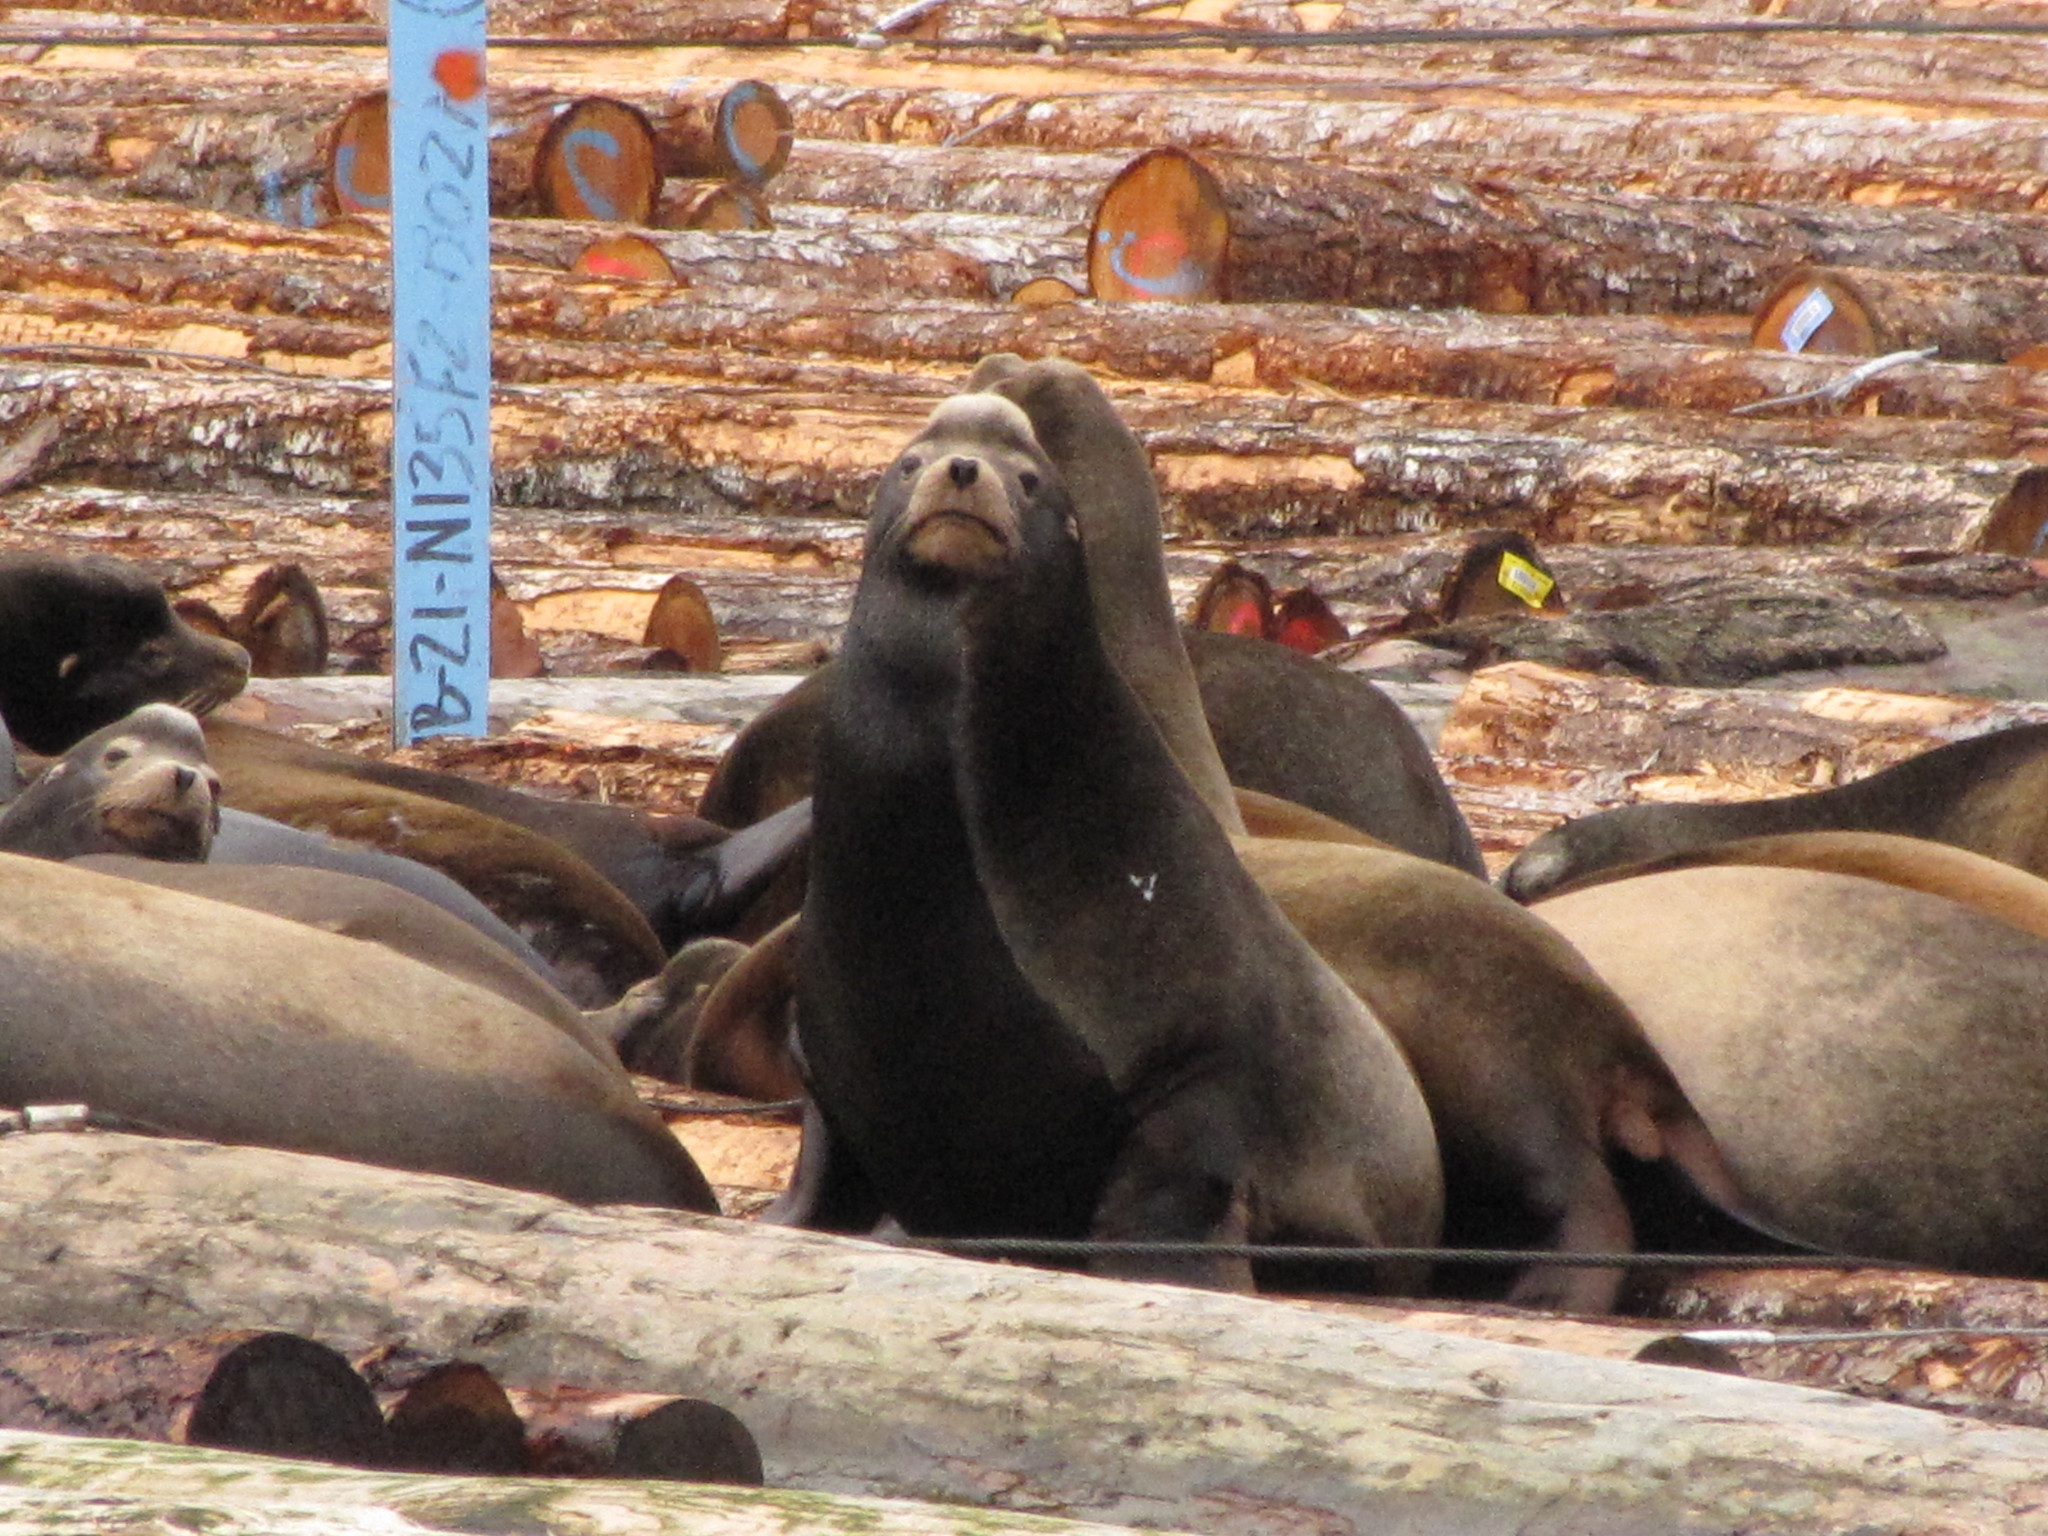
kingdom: Animalia
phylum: Chordata
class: Mammalia
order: Carnivora
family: Otariidae
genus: Zalophus
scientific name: Zalophus californianus
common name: California sea lion
